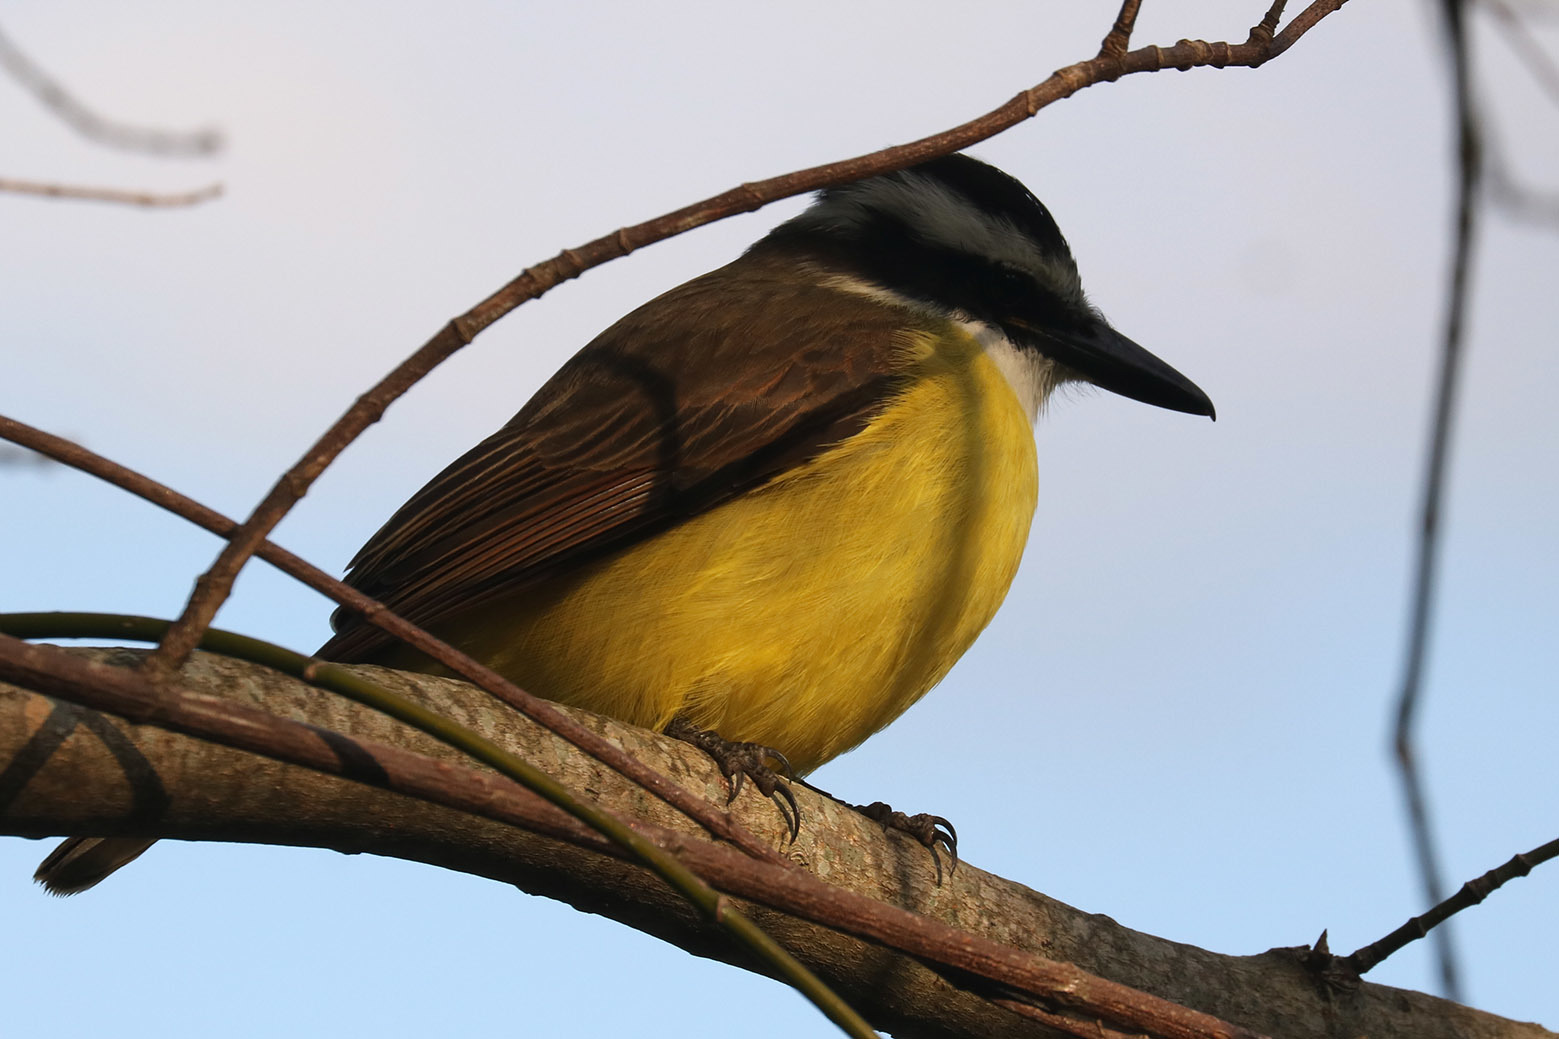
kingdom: Animalia
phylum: Chordata
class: Aves
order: Passeriformes
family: Tyrannidae
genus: Pitangus
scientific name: Pitangus sulphuratus
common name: Great kiskadee
